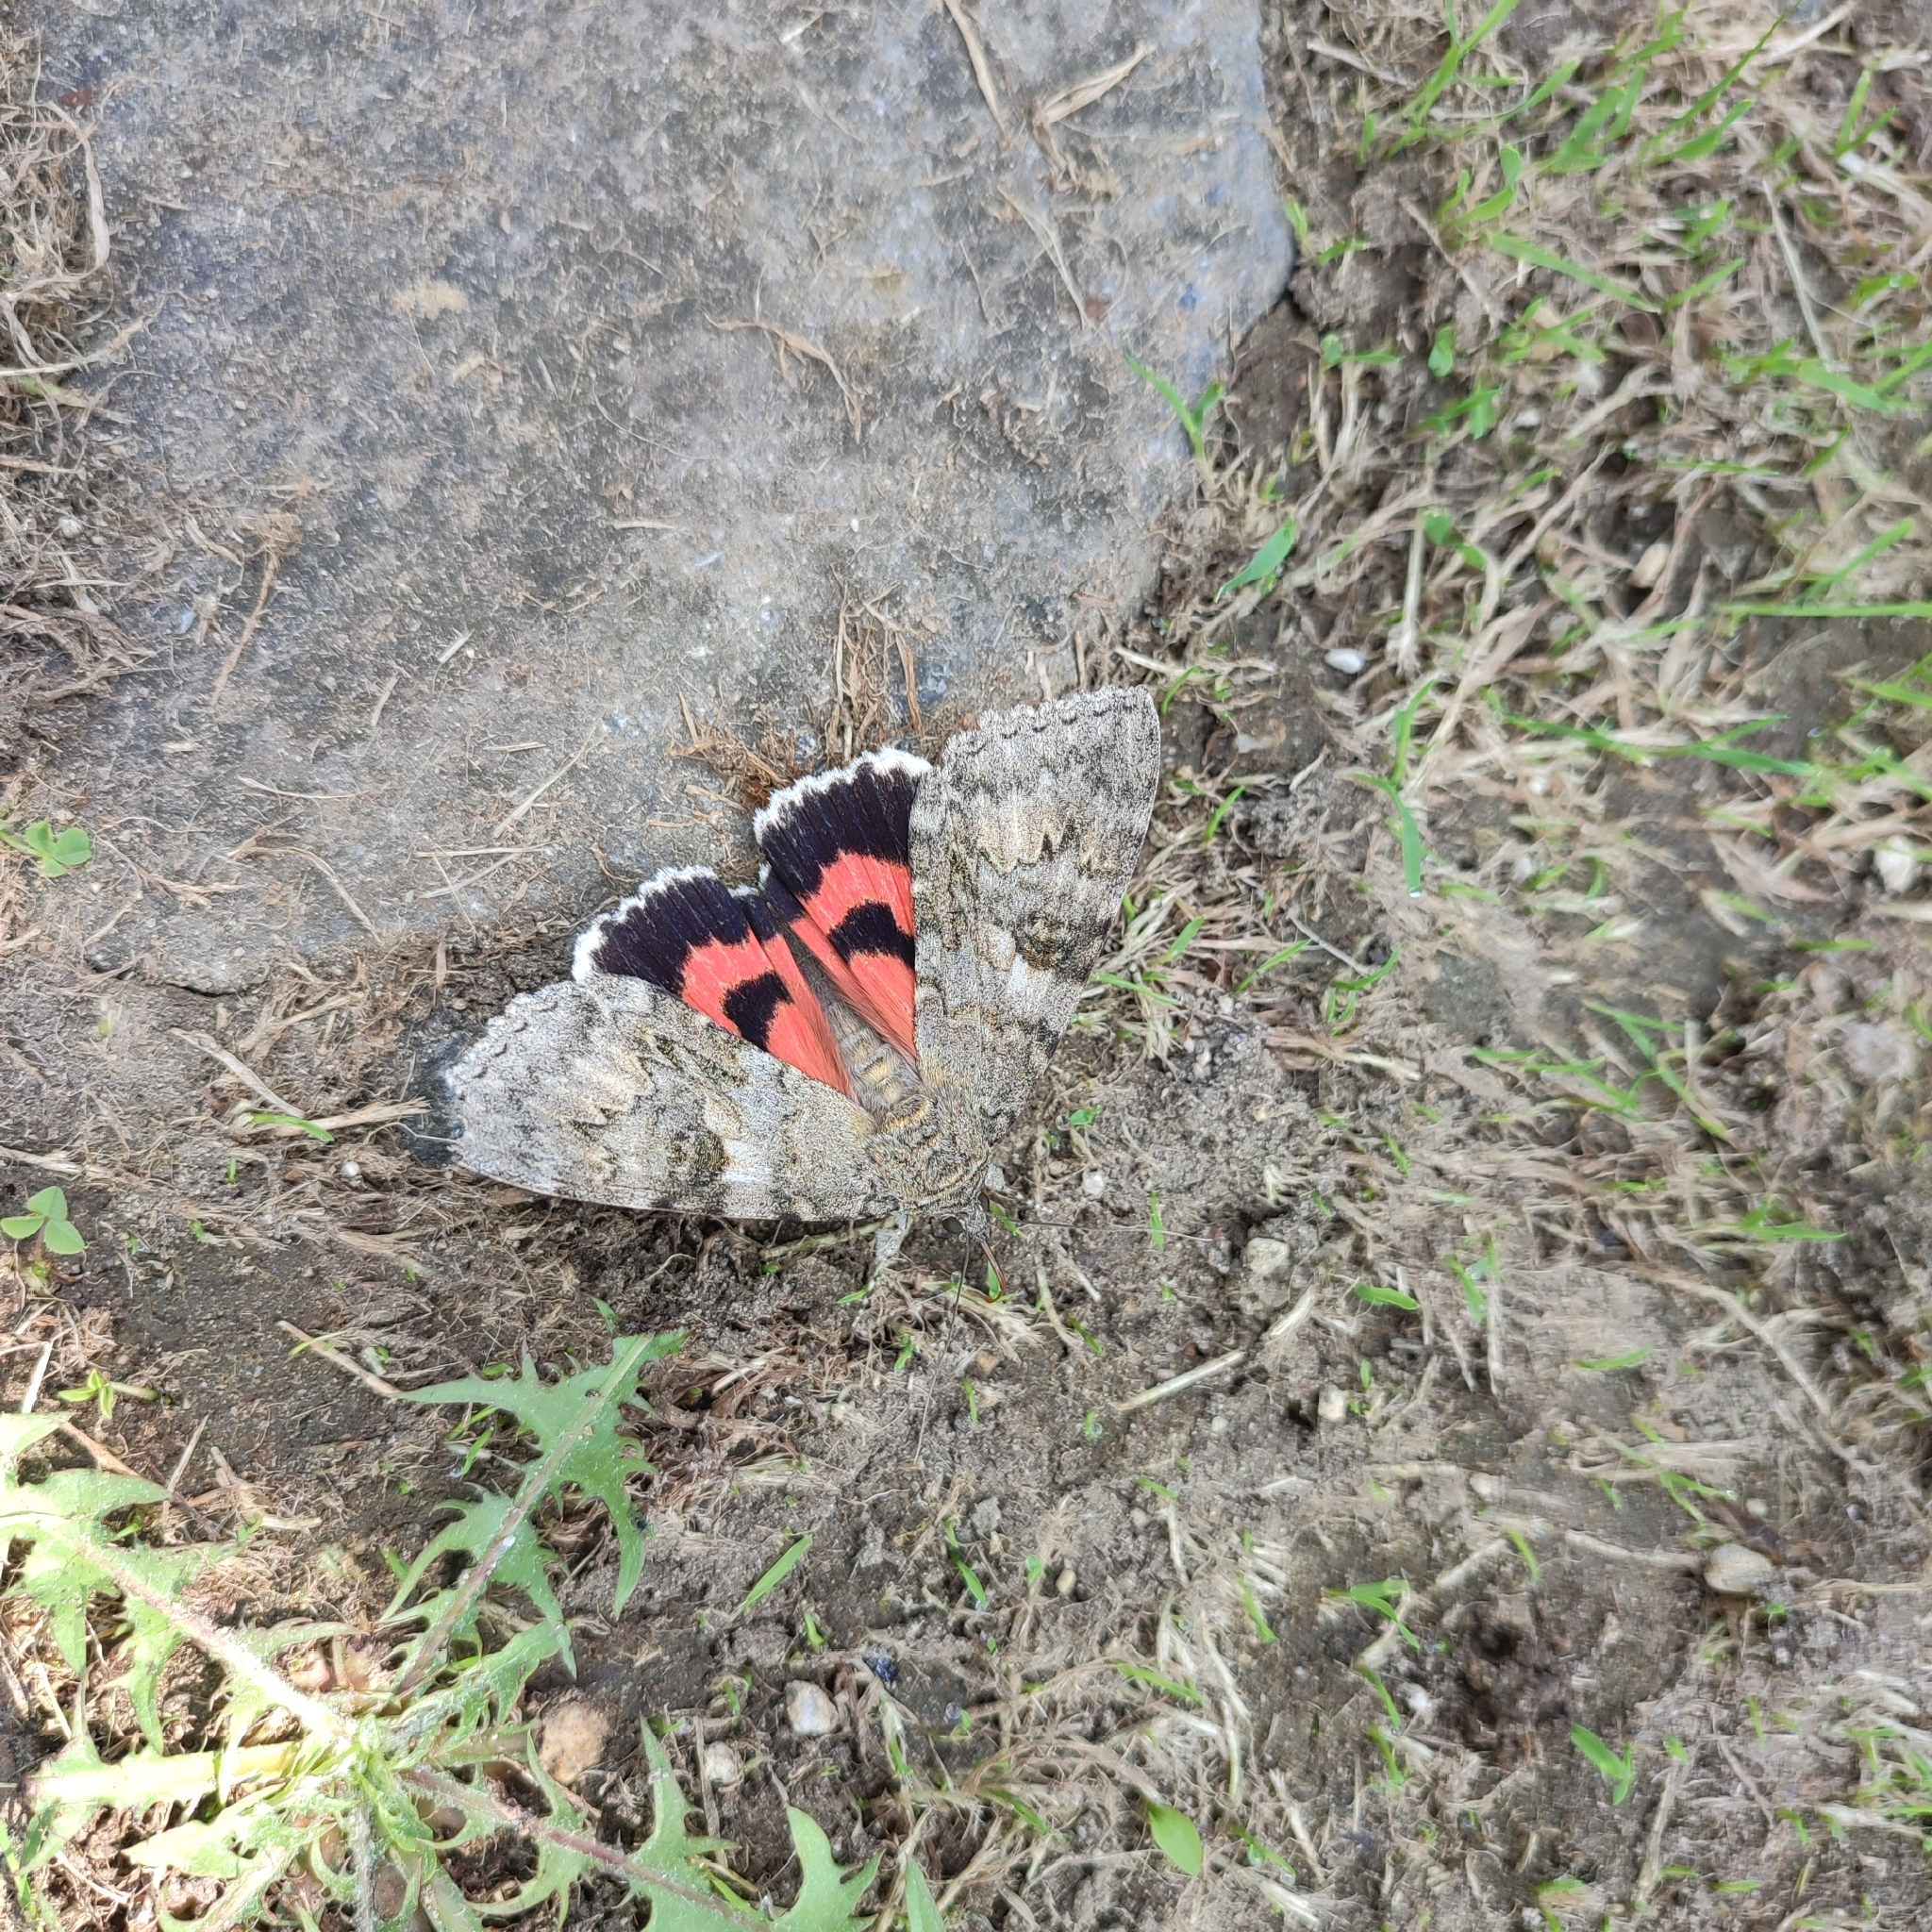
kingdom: Animalia
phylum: Arthropoda
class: Insecta
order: Lepidoptera
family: Erebidae
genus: Catocala
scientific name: Catocala nupta
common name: Red underwing
